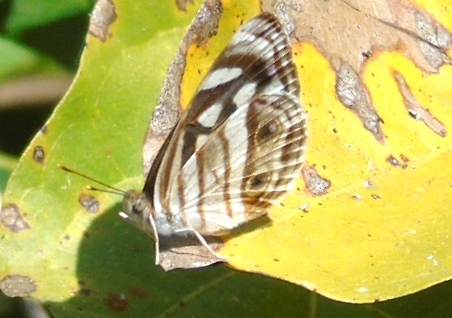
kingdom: Animalia
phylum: Arthropoda
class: Insecta
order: Lepidoptera
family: Nymphalidae
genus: Dynamine
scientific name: Dynamine mylitta
